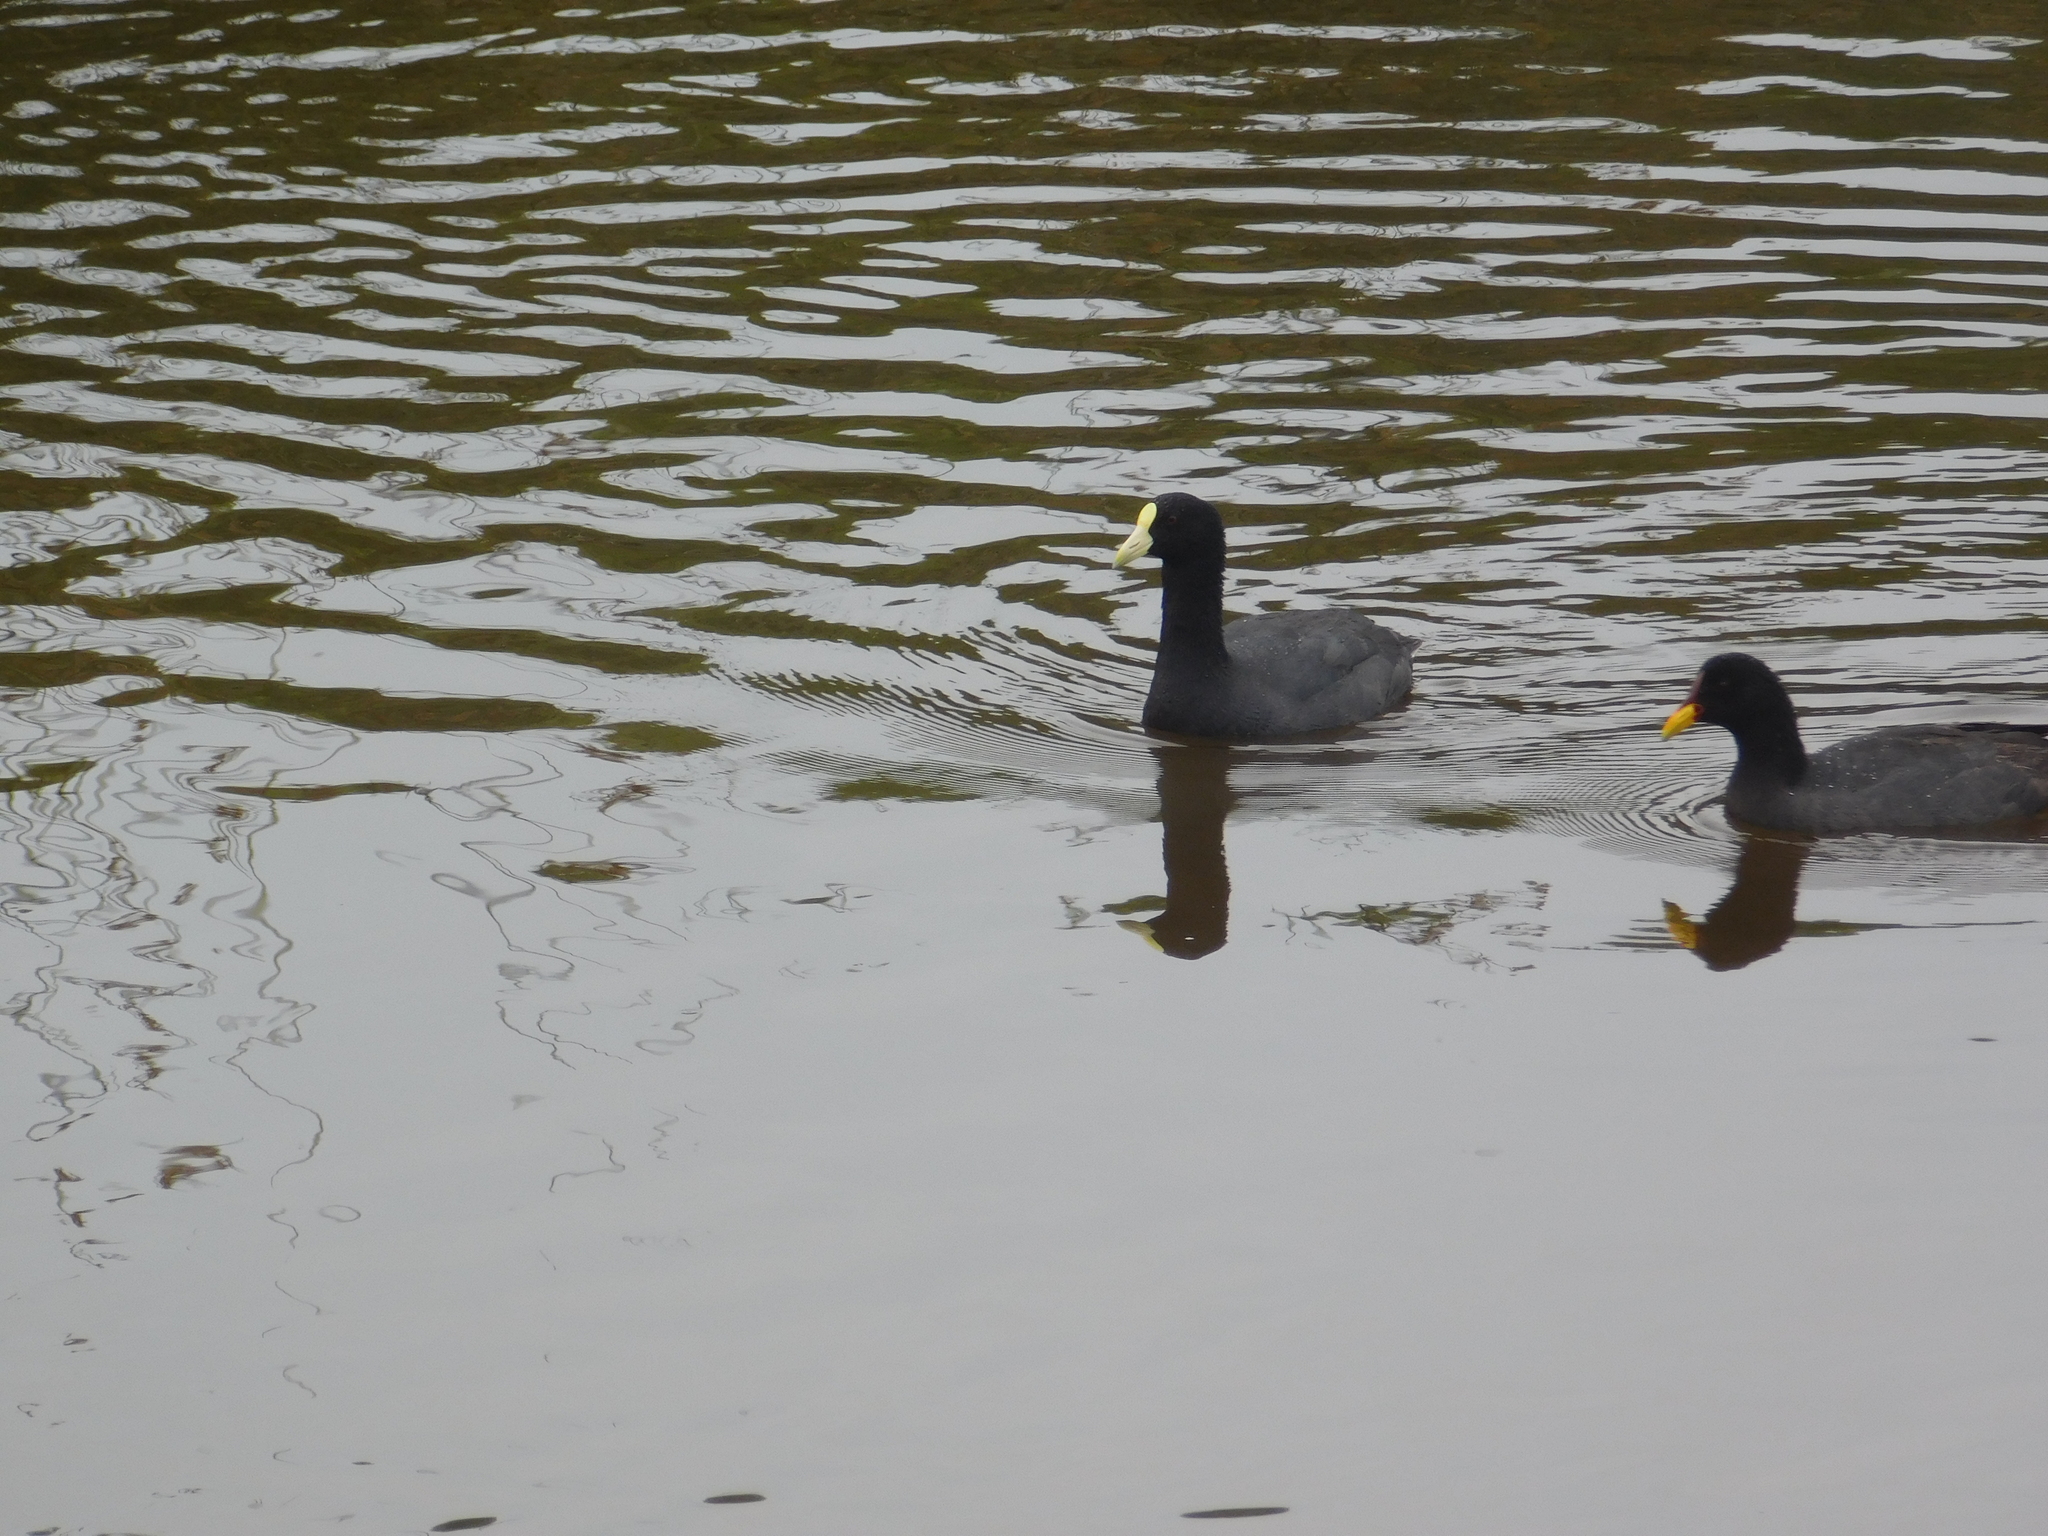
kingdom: Animalia
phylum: Chordata
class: Aves
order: Gruiformes
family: Rallidae
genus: Fulica
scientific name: Fulica leucoptera
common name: White-winged coot
